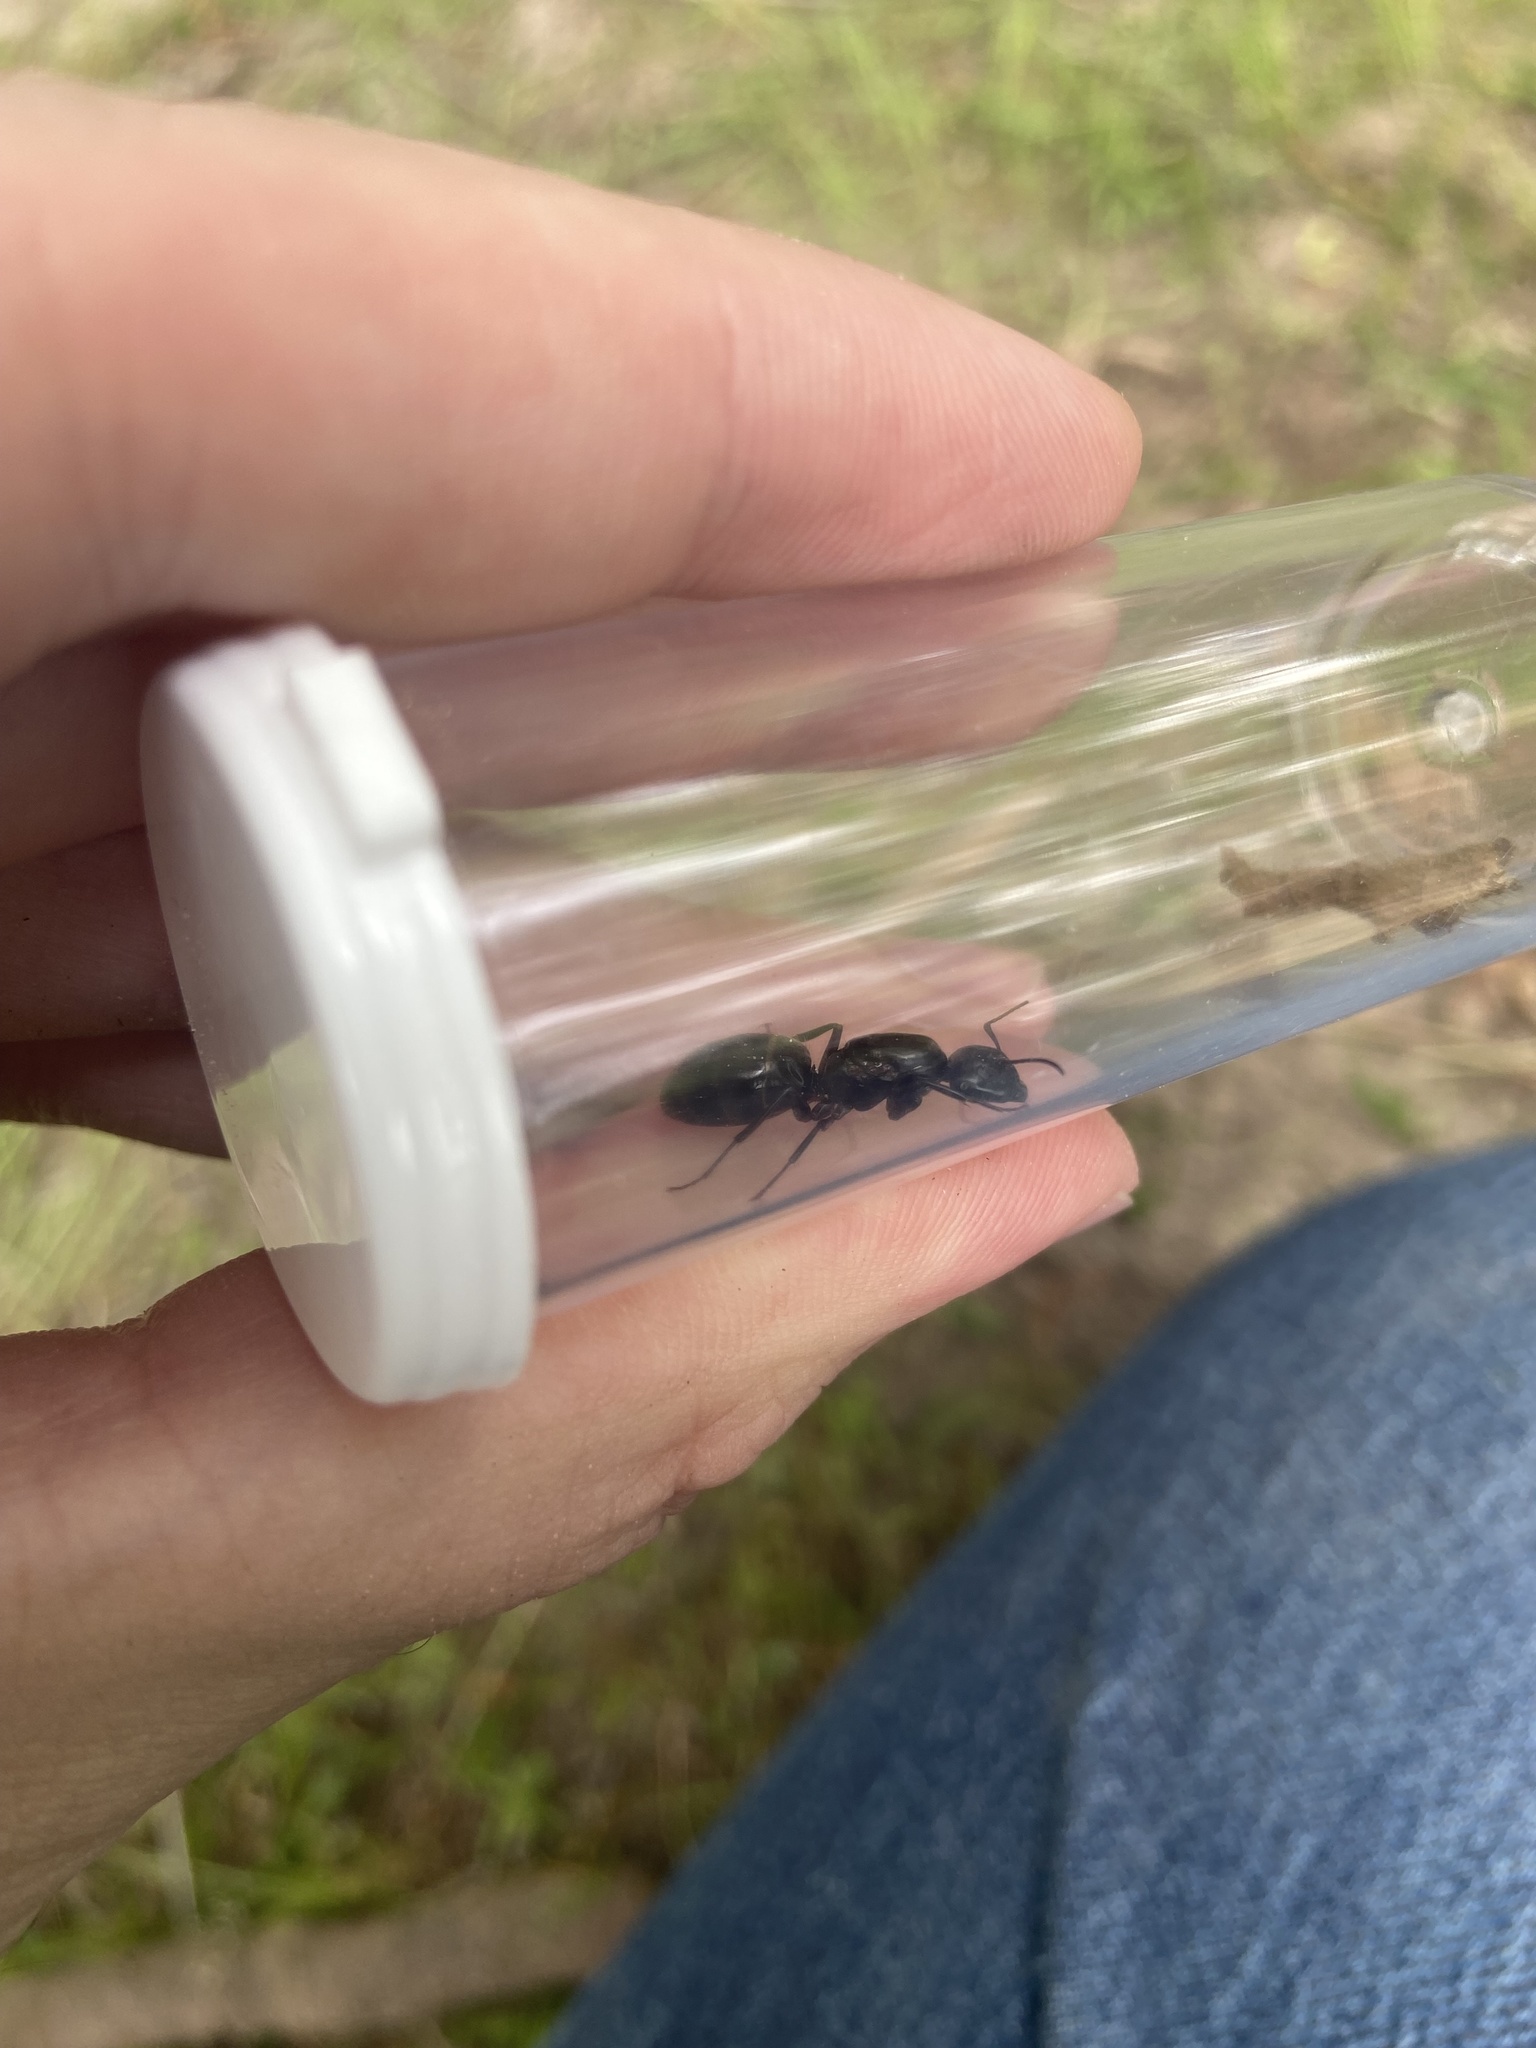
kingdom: Animalia
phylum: Arthropoda
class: Insecta
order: Hymenoptera
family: Formicidae
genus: Camponotus
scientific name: Camponotus pennsylvanicus
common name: Black carpenter ant
